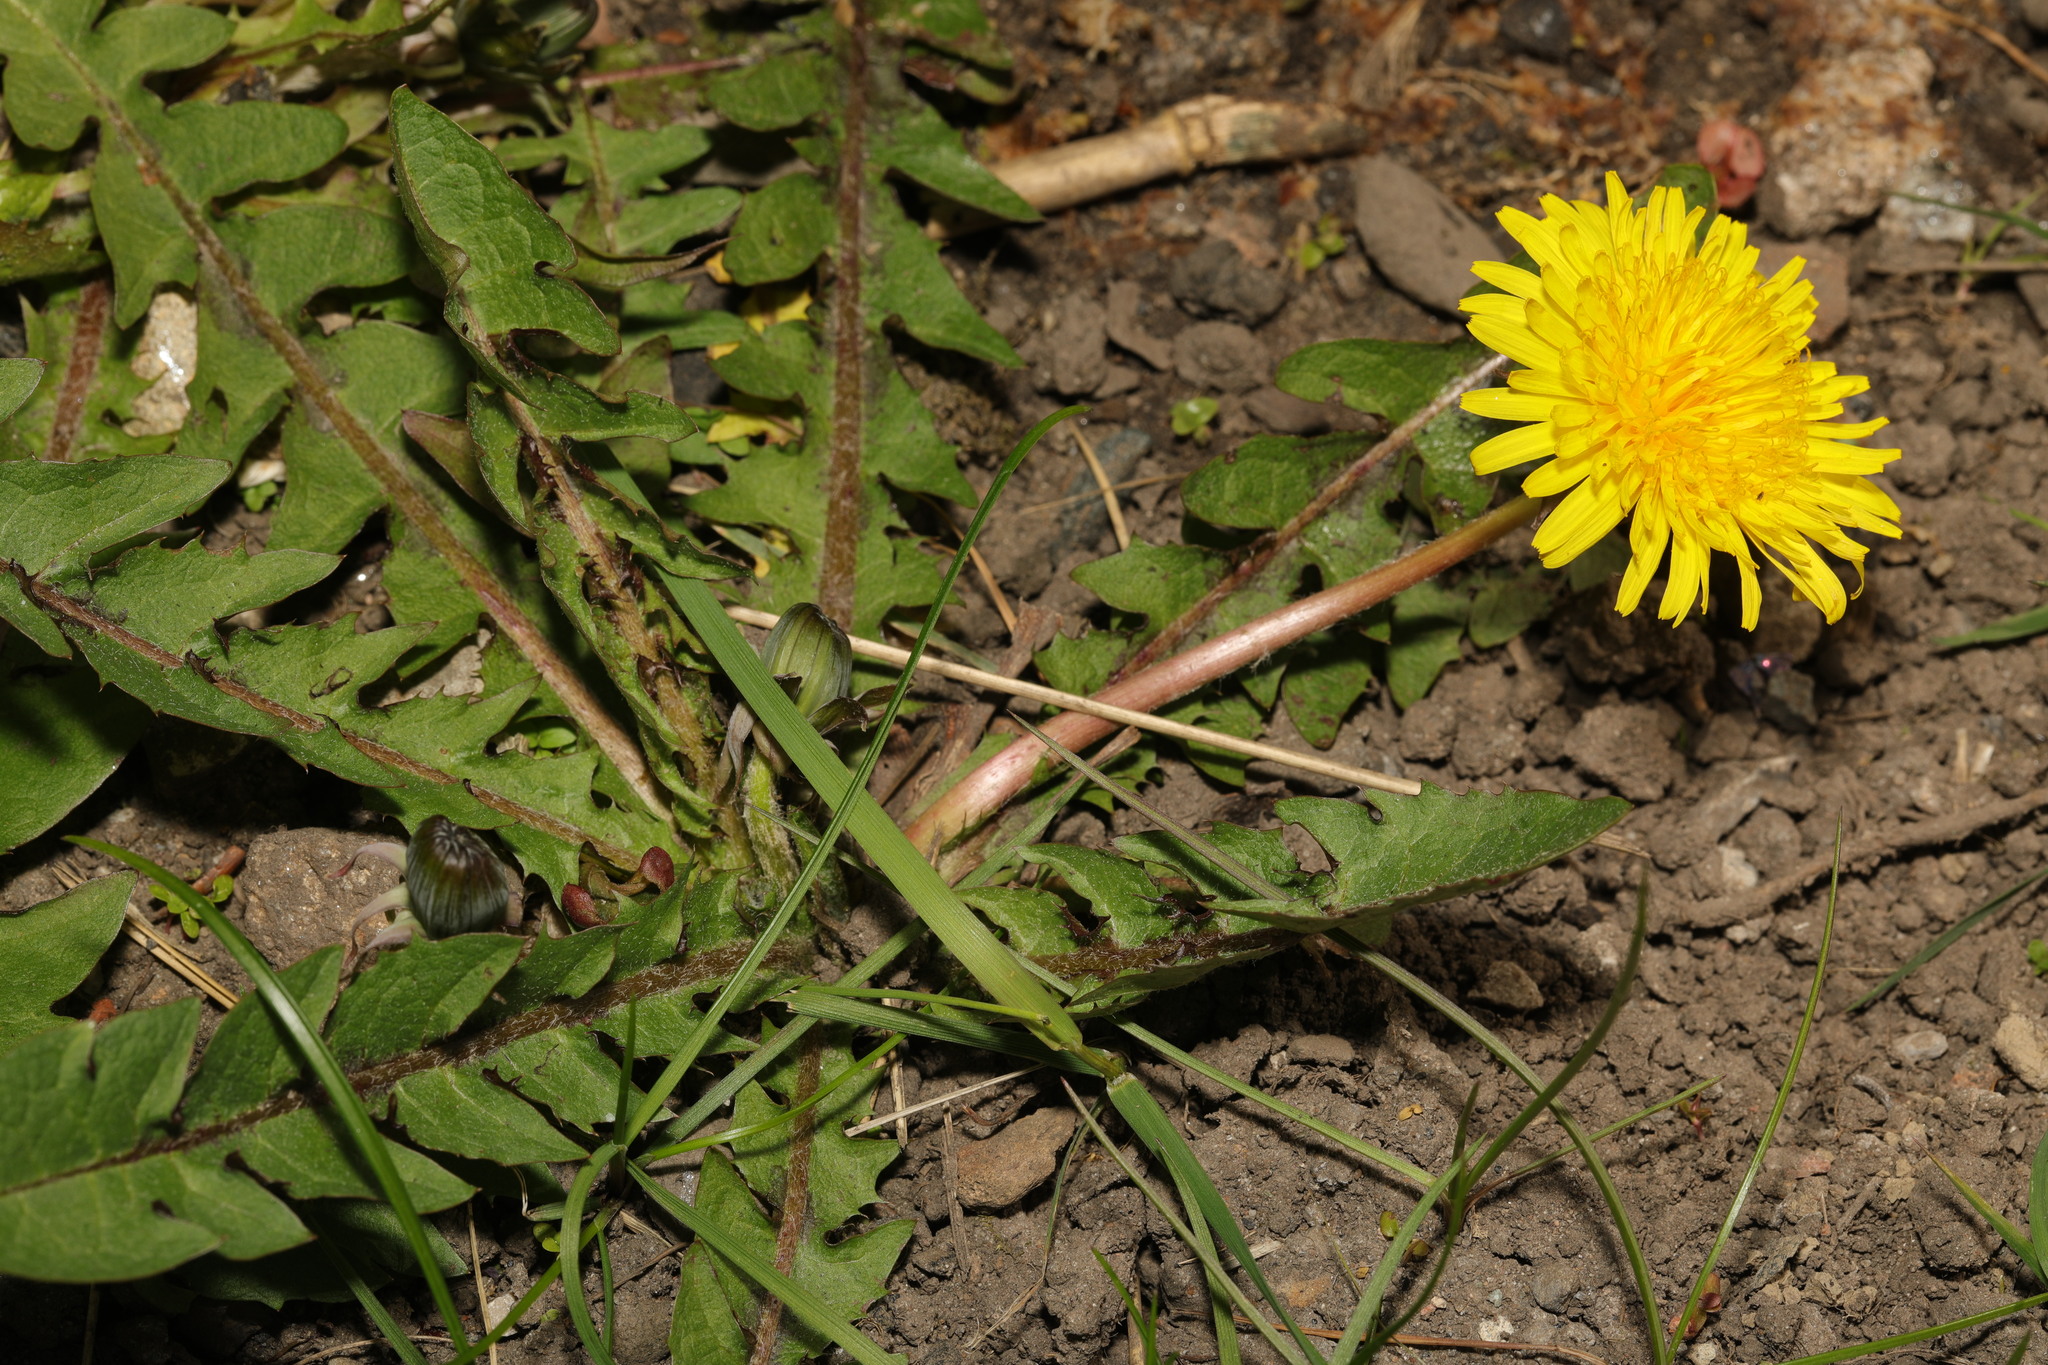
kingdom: Plantae
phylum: Tracheophyta
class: Magnoliopsida
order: Asterales
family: Asteraceae
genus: Taraxacum
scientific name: Taraxacum officinale
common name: Common dandelion
